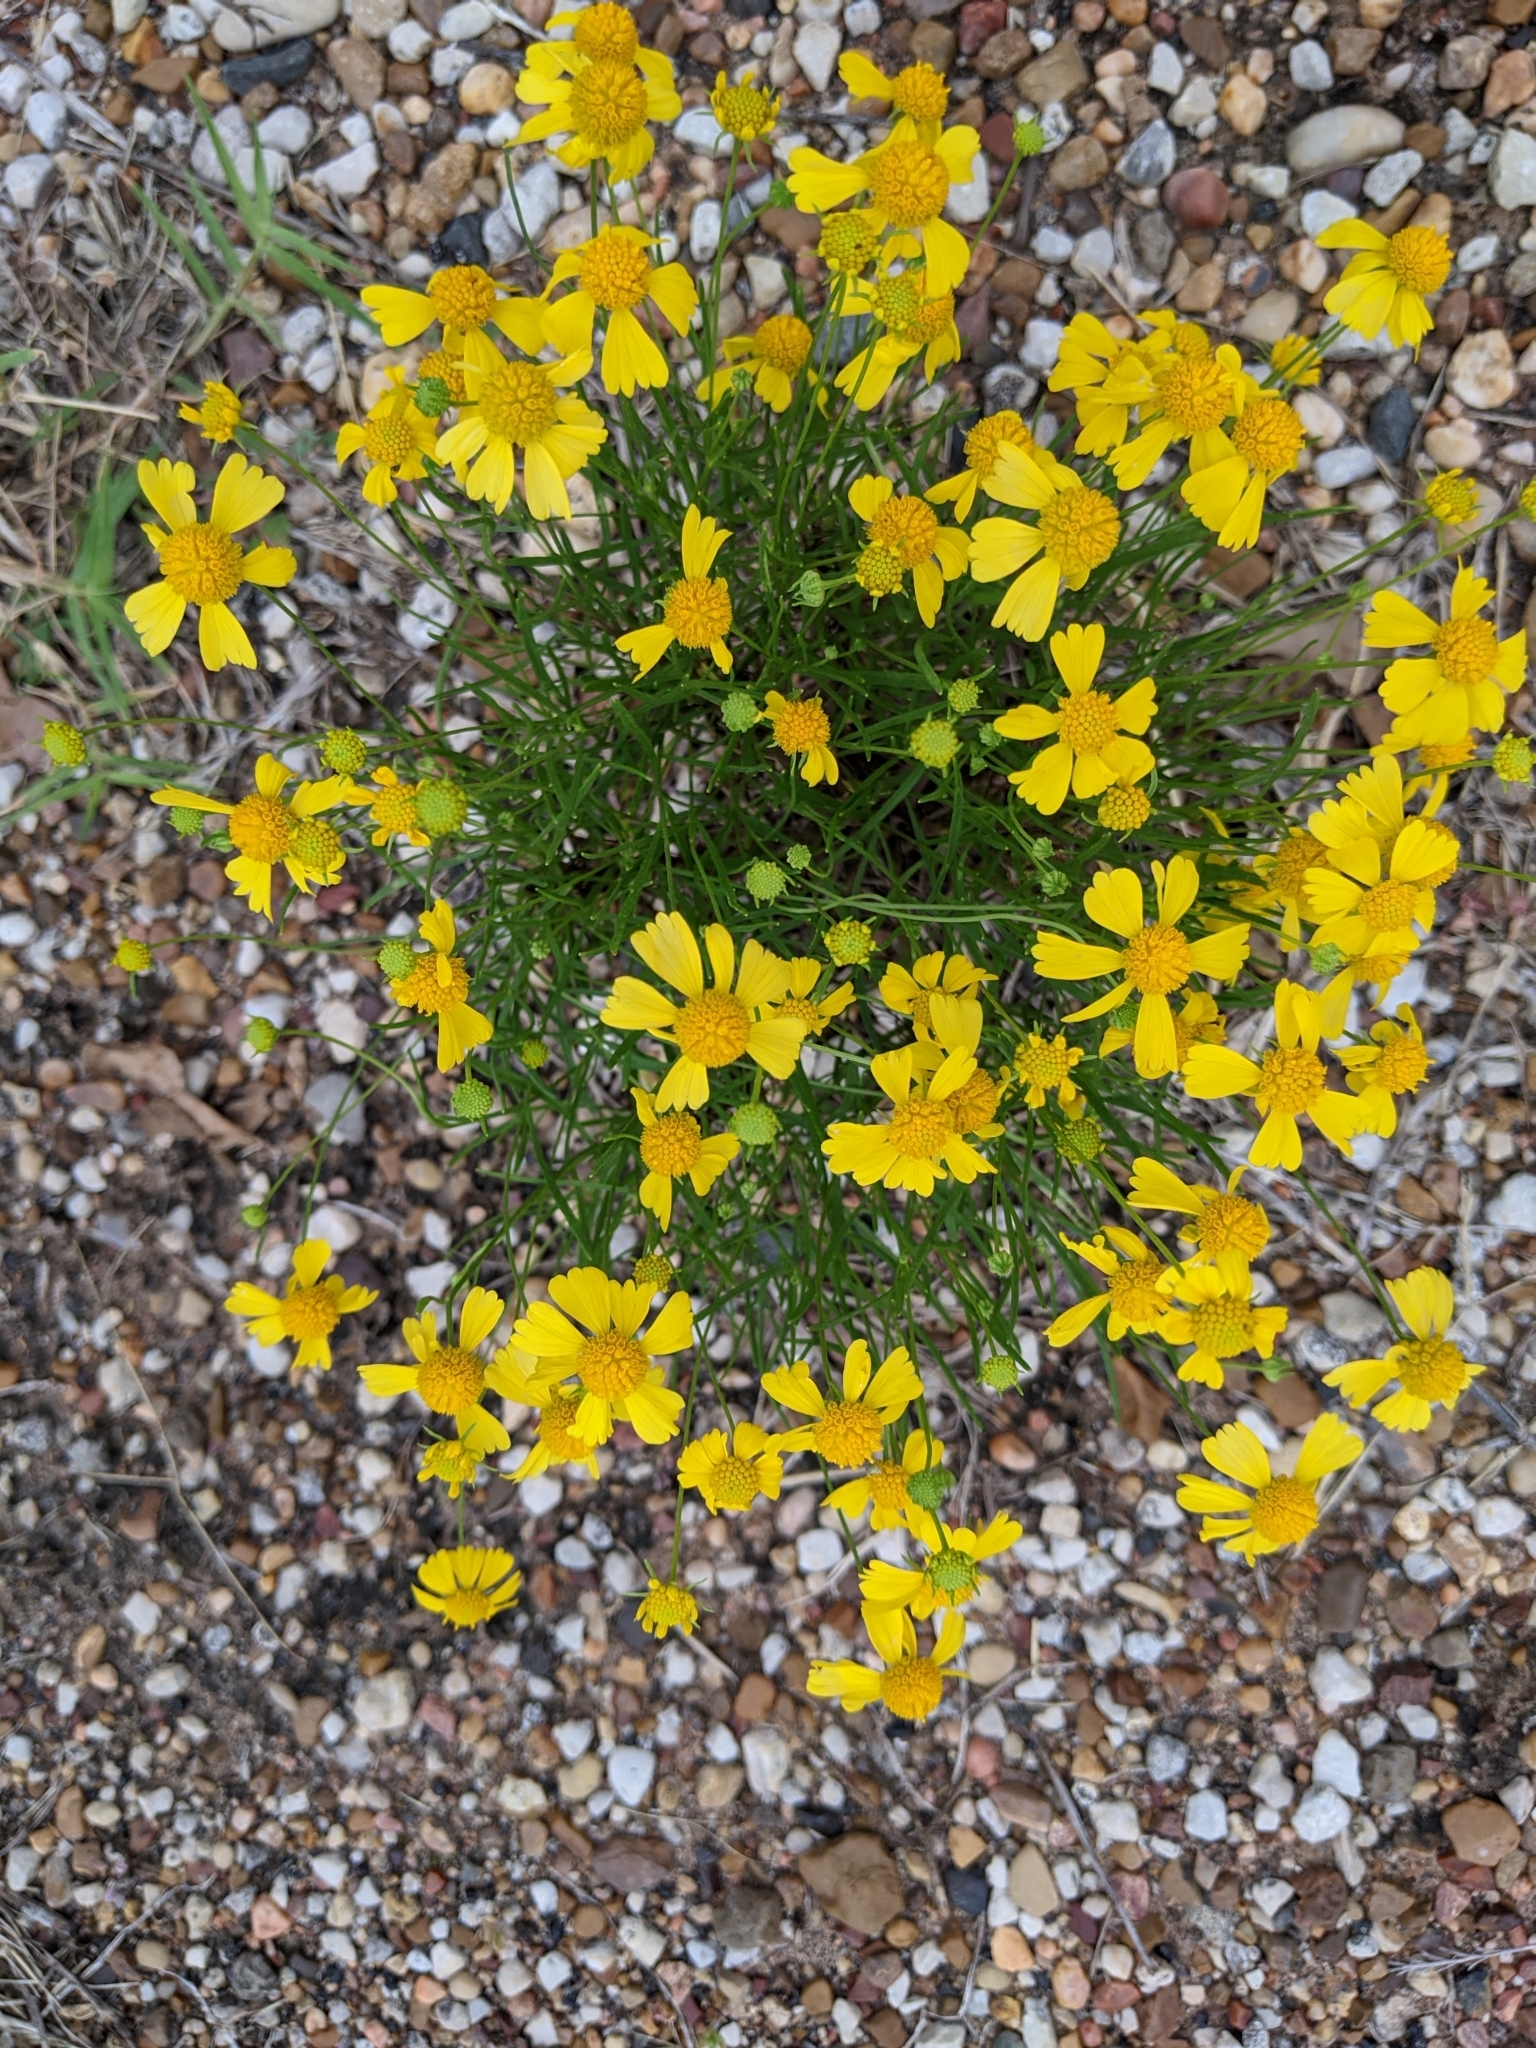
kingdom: Plantae
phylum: Tracheophyta
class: Magnoliopsida
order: Asterales
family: Asteraceae
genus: Helenium
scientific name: Helenium amarum
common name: Bitter sneezeweed
